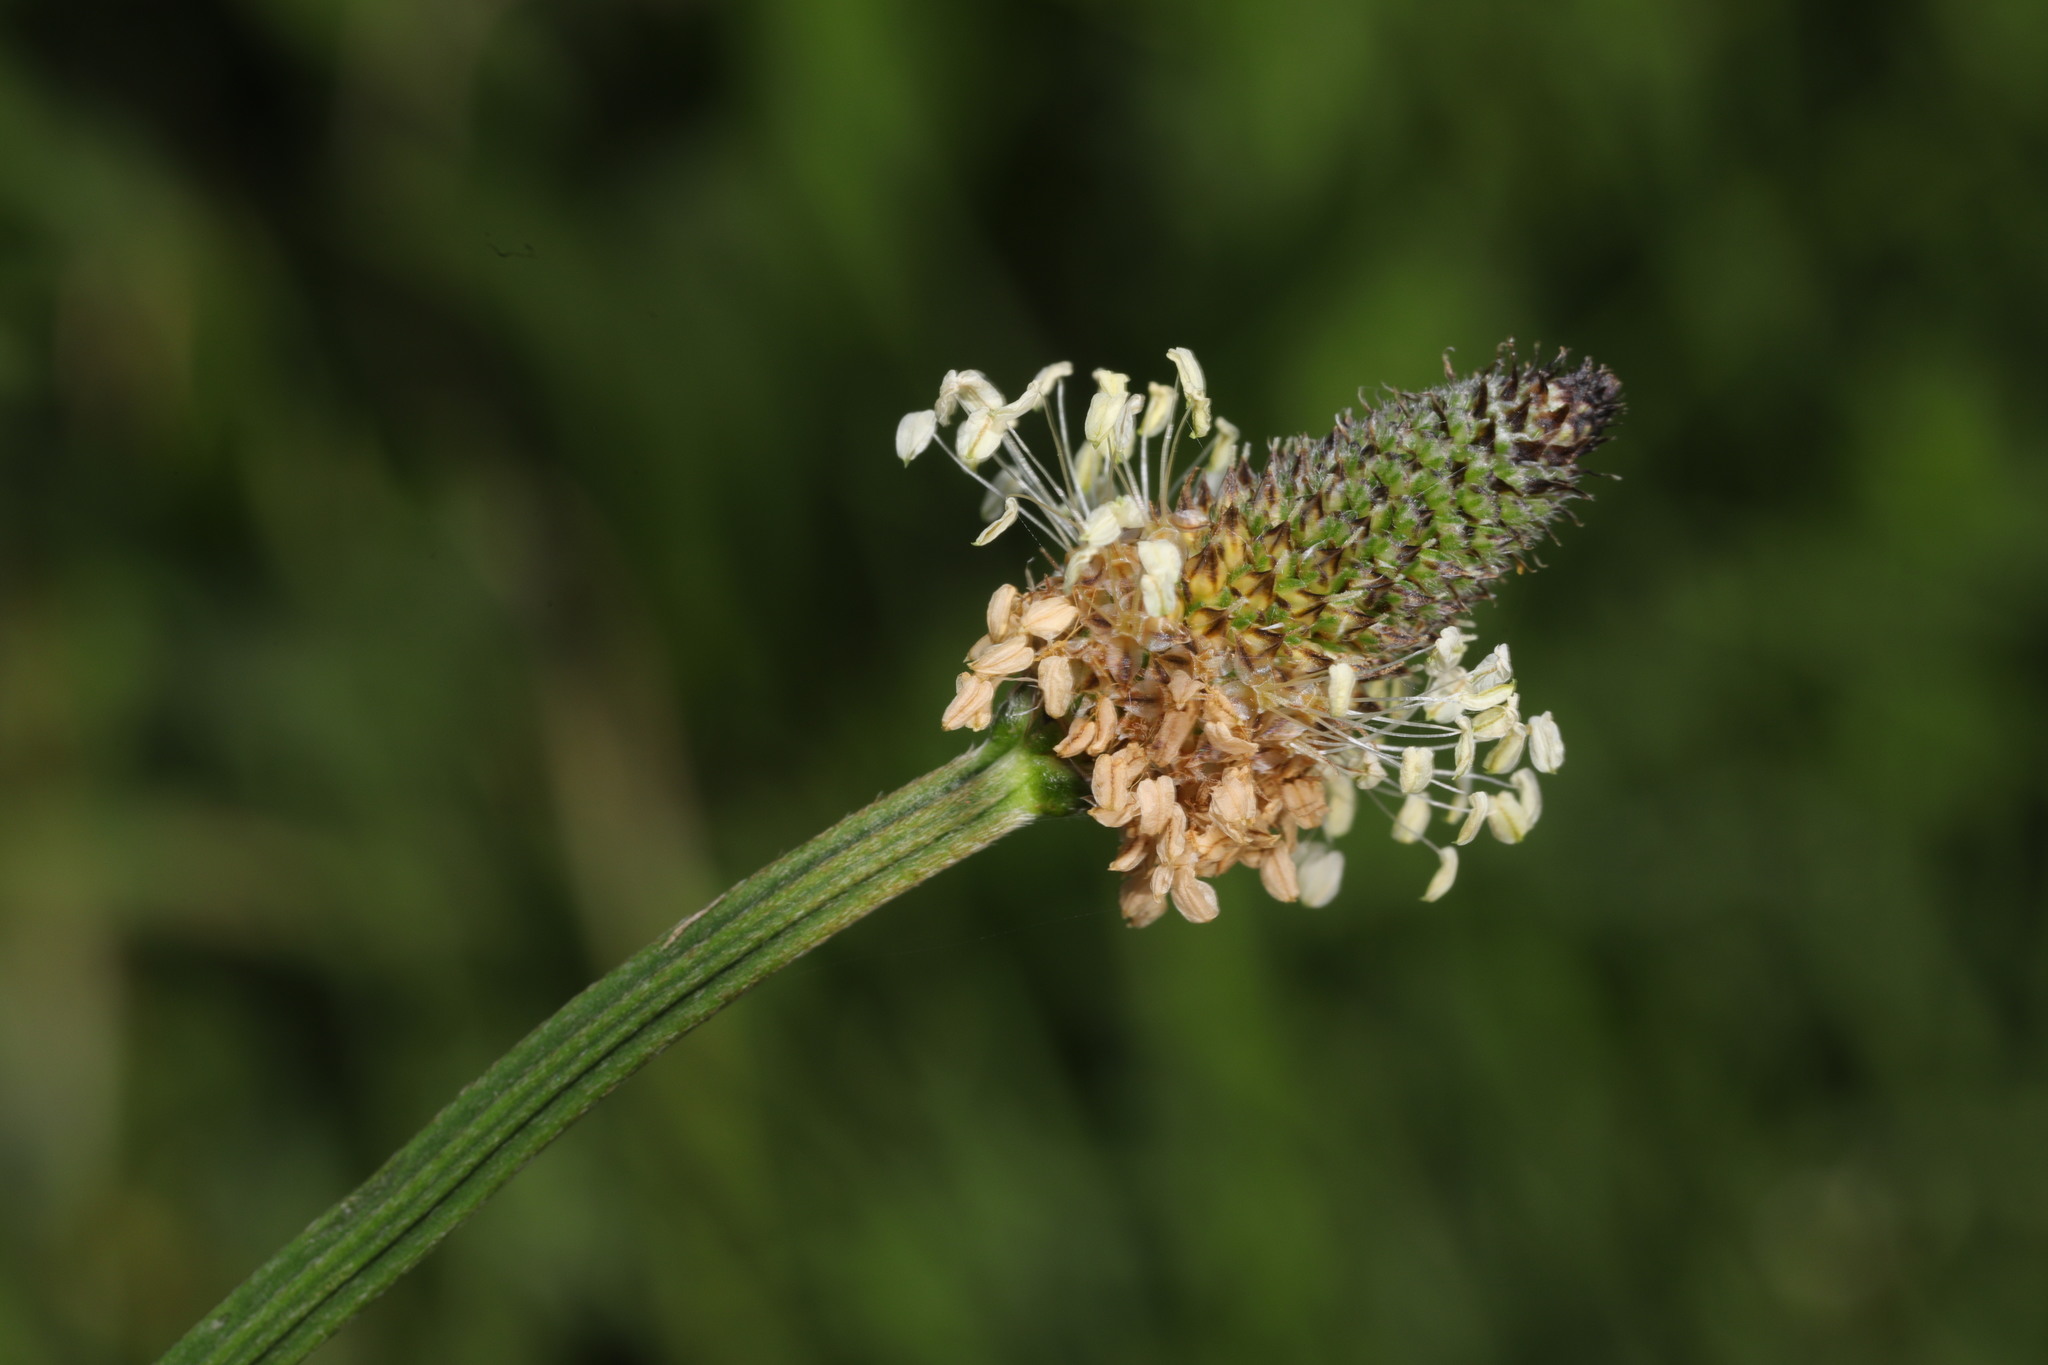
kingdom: Plantae
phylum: Tracheophyta
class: Magnoliopsida
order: Lamiales
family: Plantaginaceae
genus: Plantago
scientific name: Plantago lanceolata
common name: Ribwort plantain
